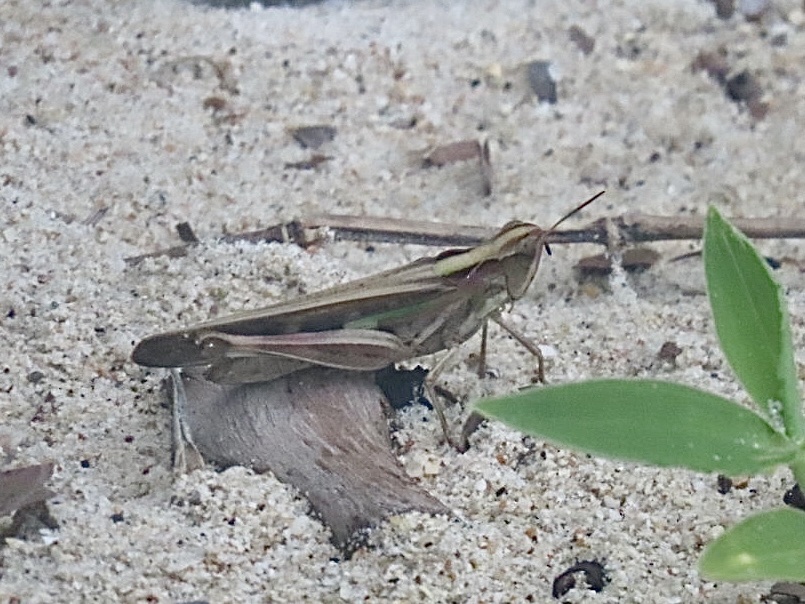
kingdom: Animalia
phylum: Arthropoda
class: Insecta
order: Orthoptera
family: Acrididae
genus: Aiolopus
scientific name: Aiolopus thalassinus
